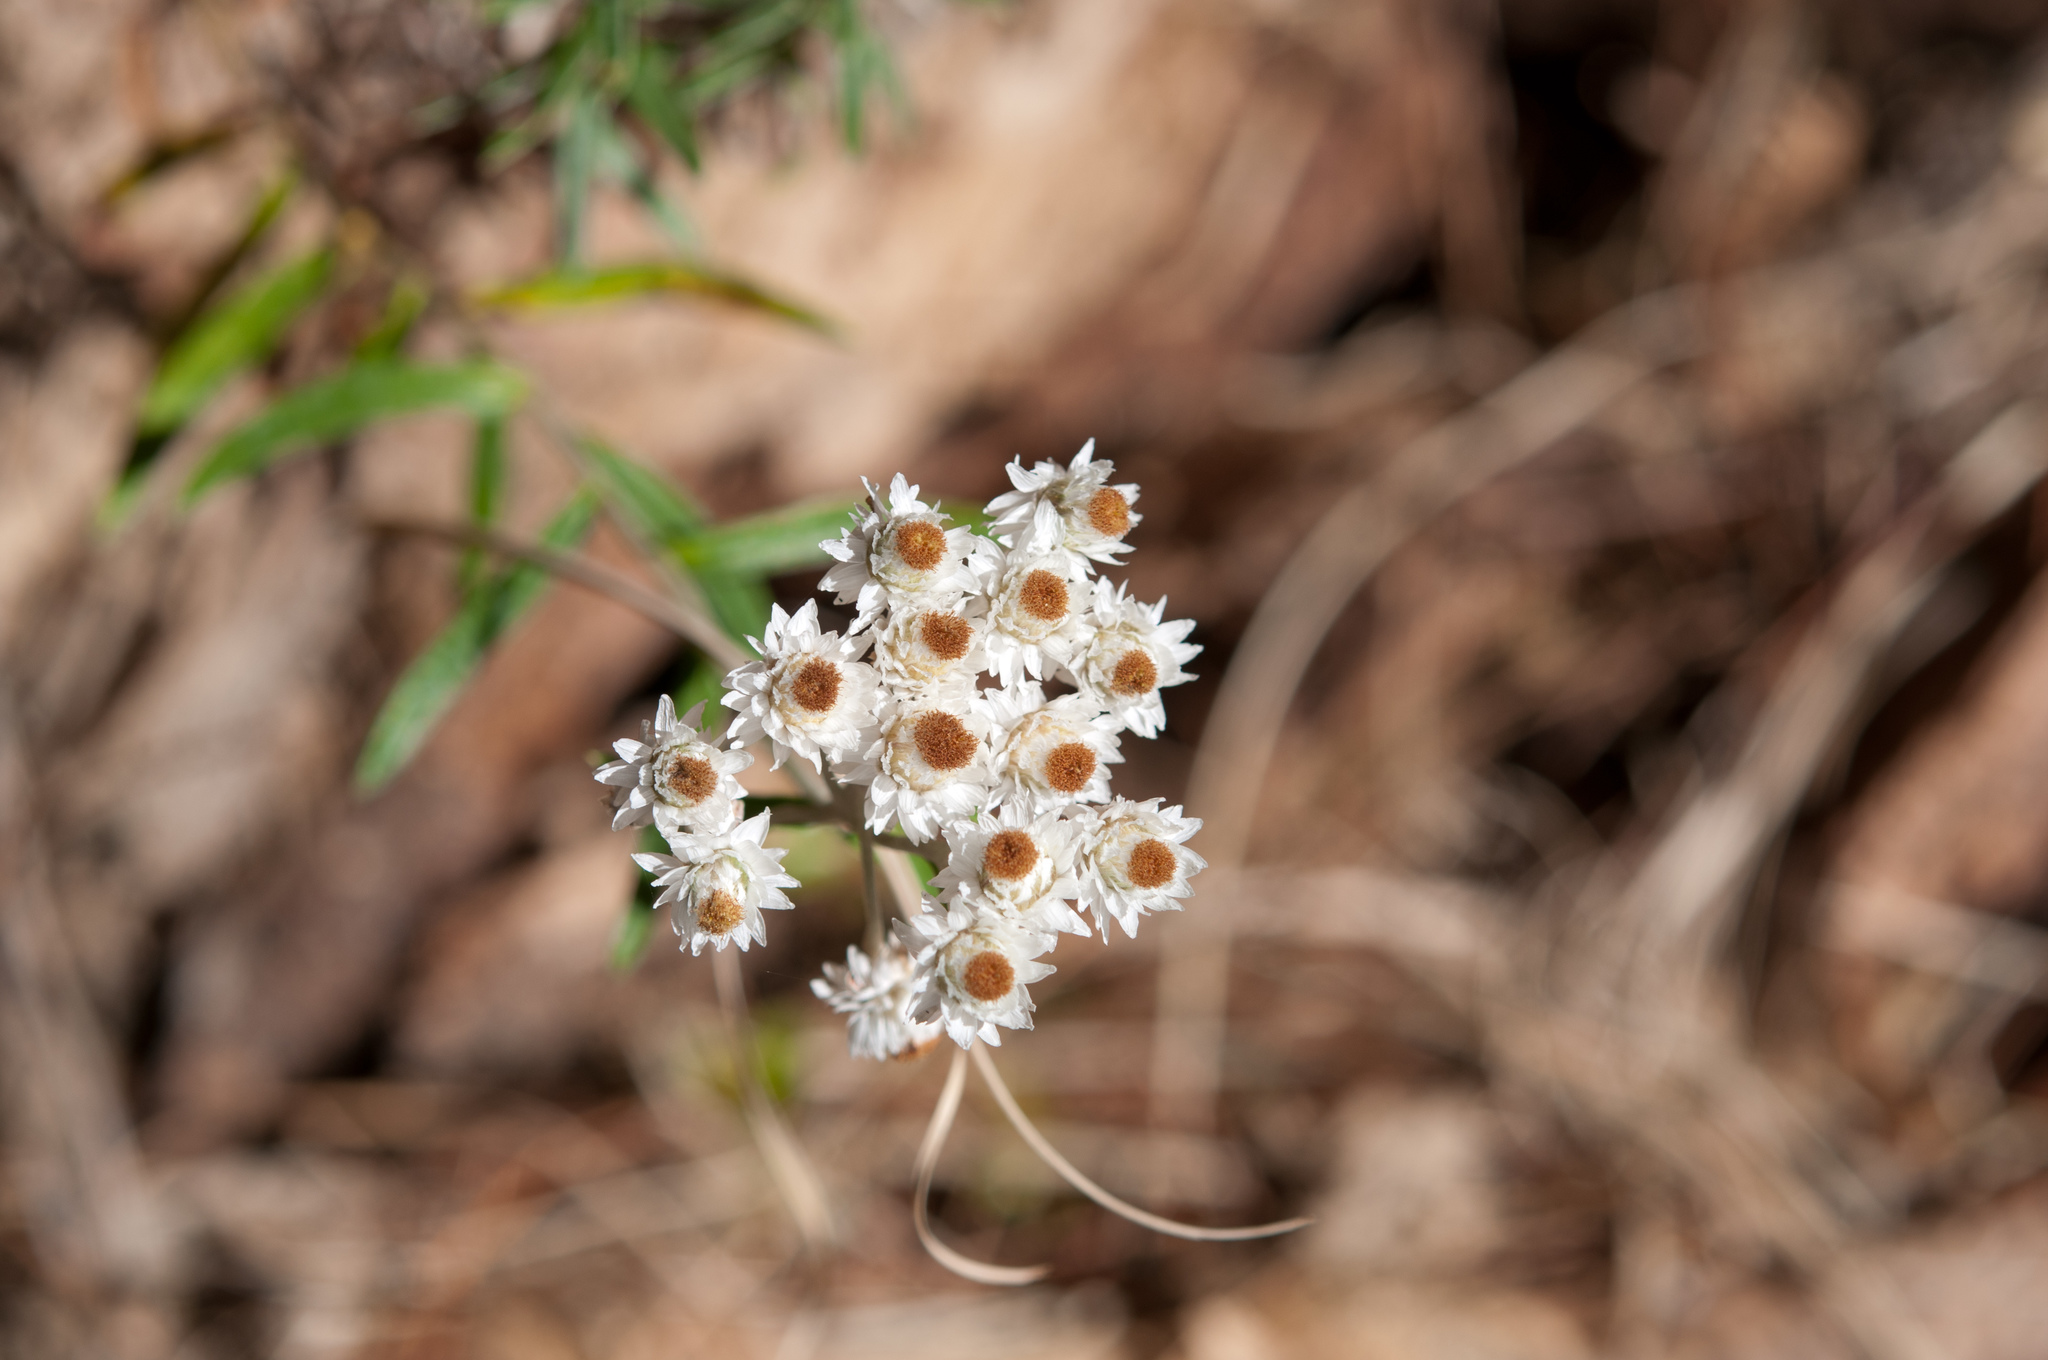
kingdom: Plantae
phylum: Tracheophyta
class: Magnoliopsida
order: Asterales
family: Asteraceae
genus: Anaphalis
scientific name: Anaphalis morrisonicola
